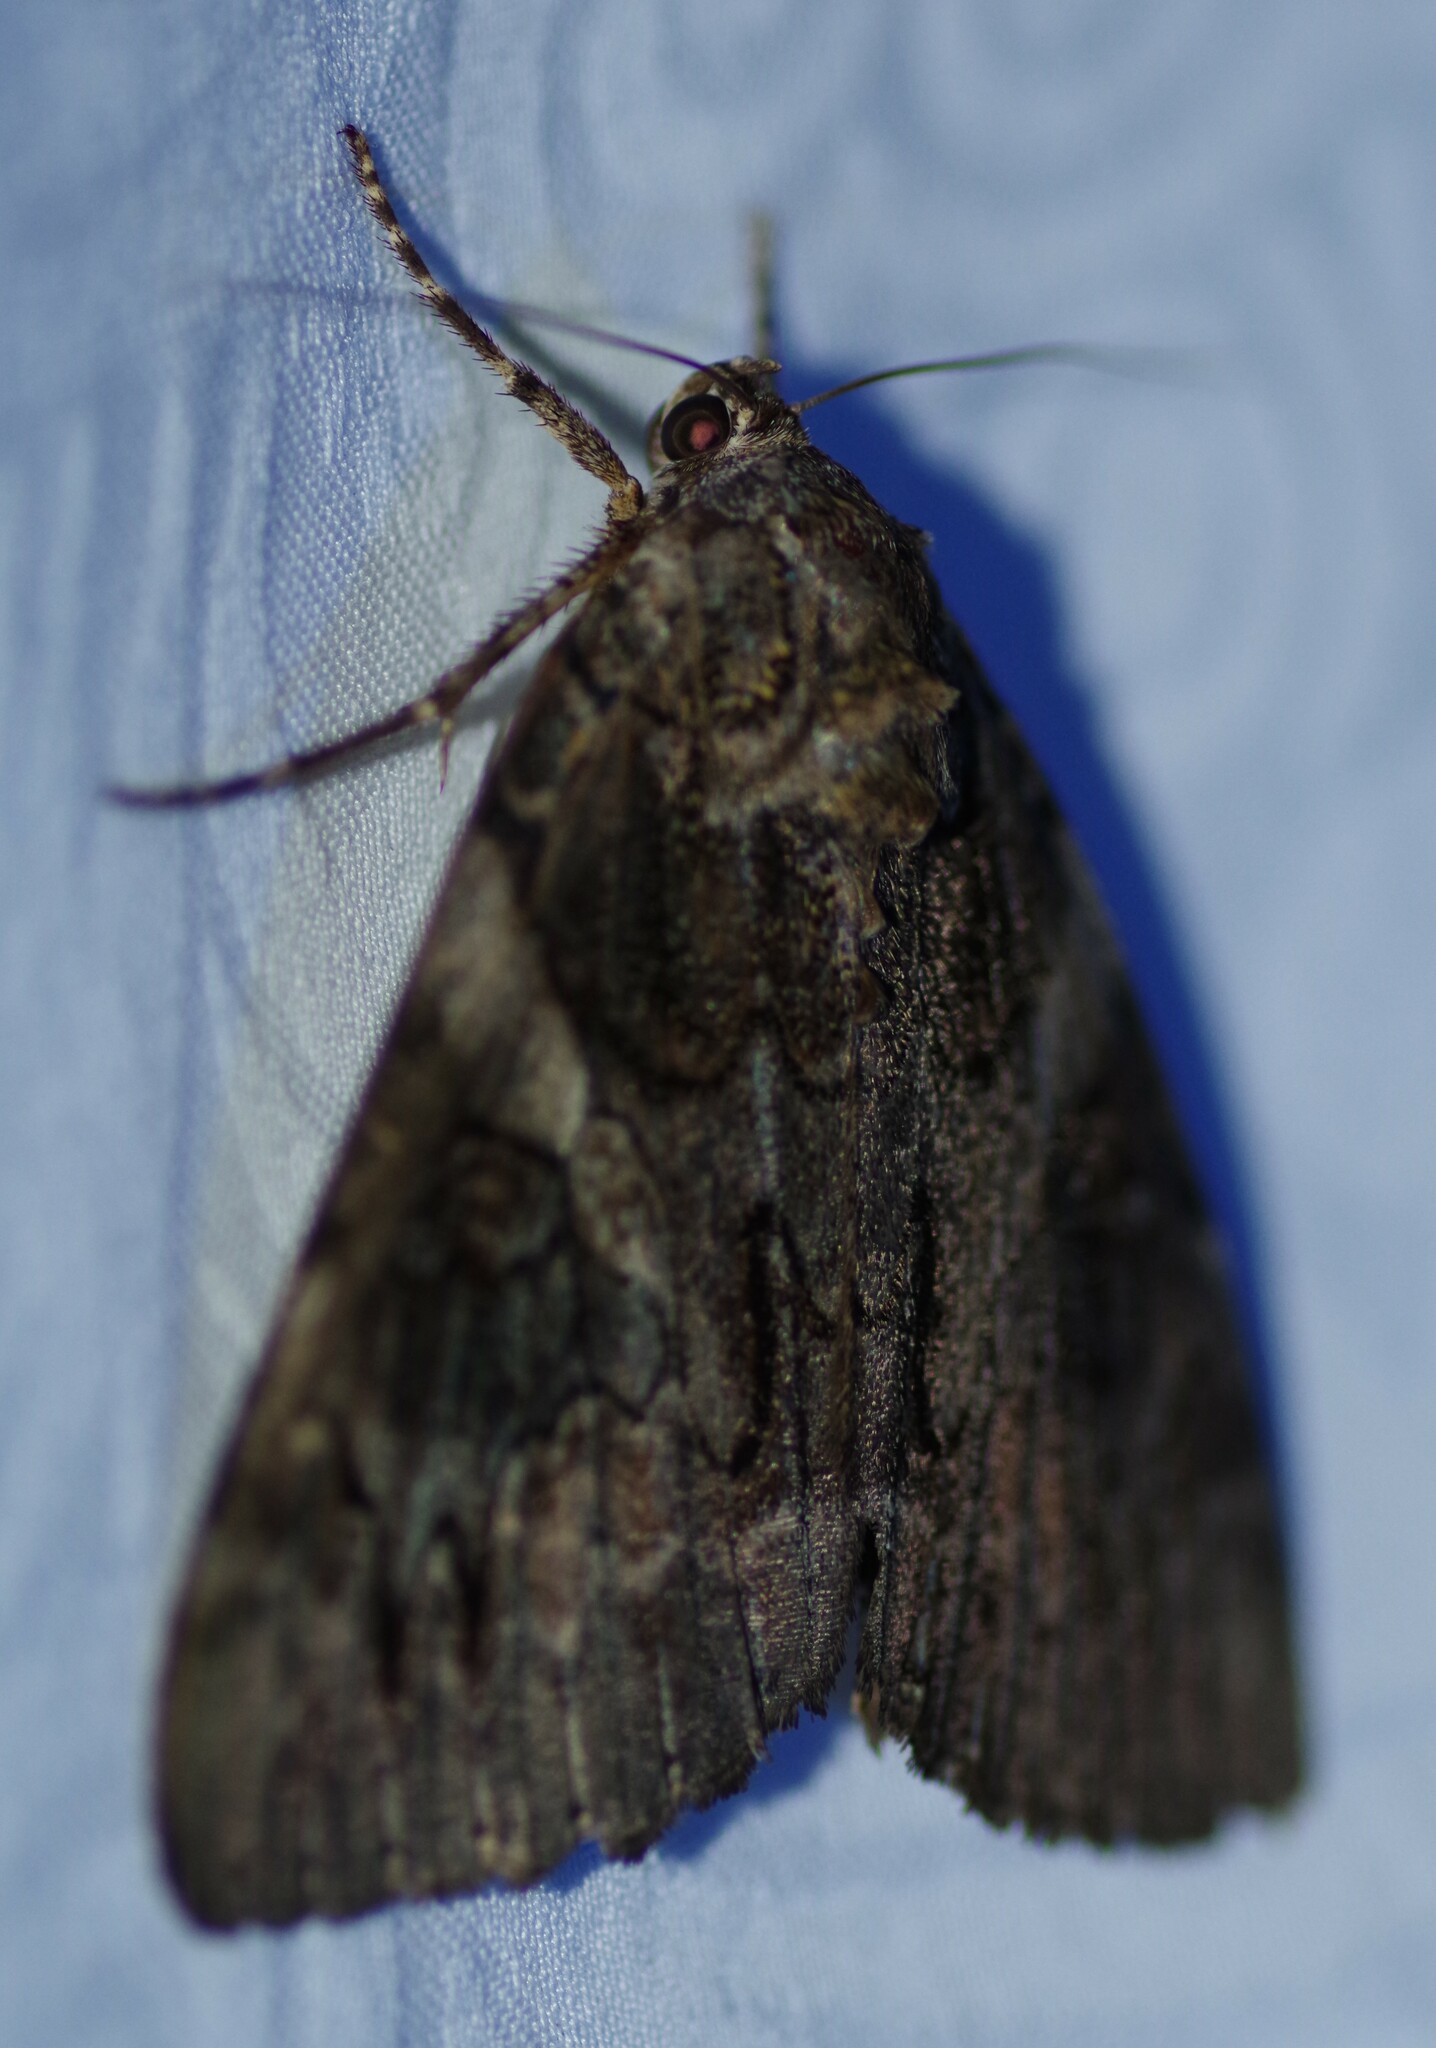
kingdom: Animalia
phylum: Arthropoda
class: Insecta
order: Lepidoptera
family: Erebidae
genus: Catocala
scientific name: Catocala piatrix
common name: The penitent underwing
